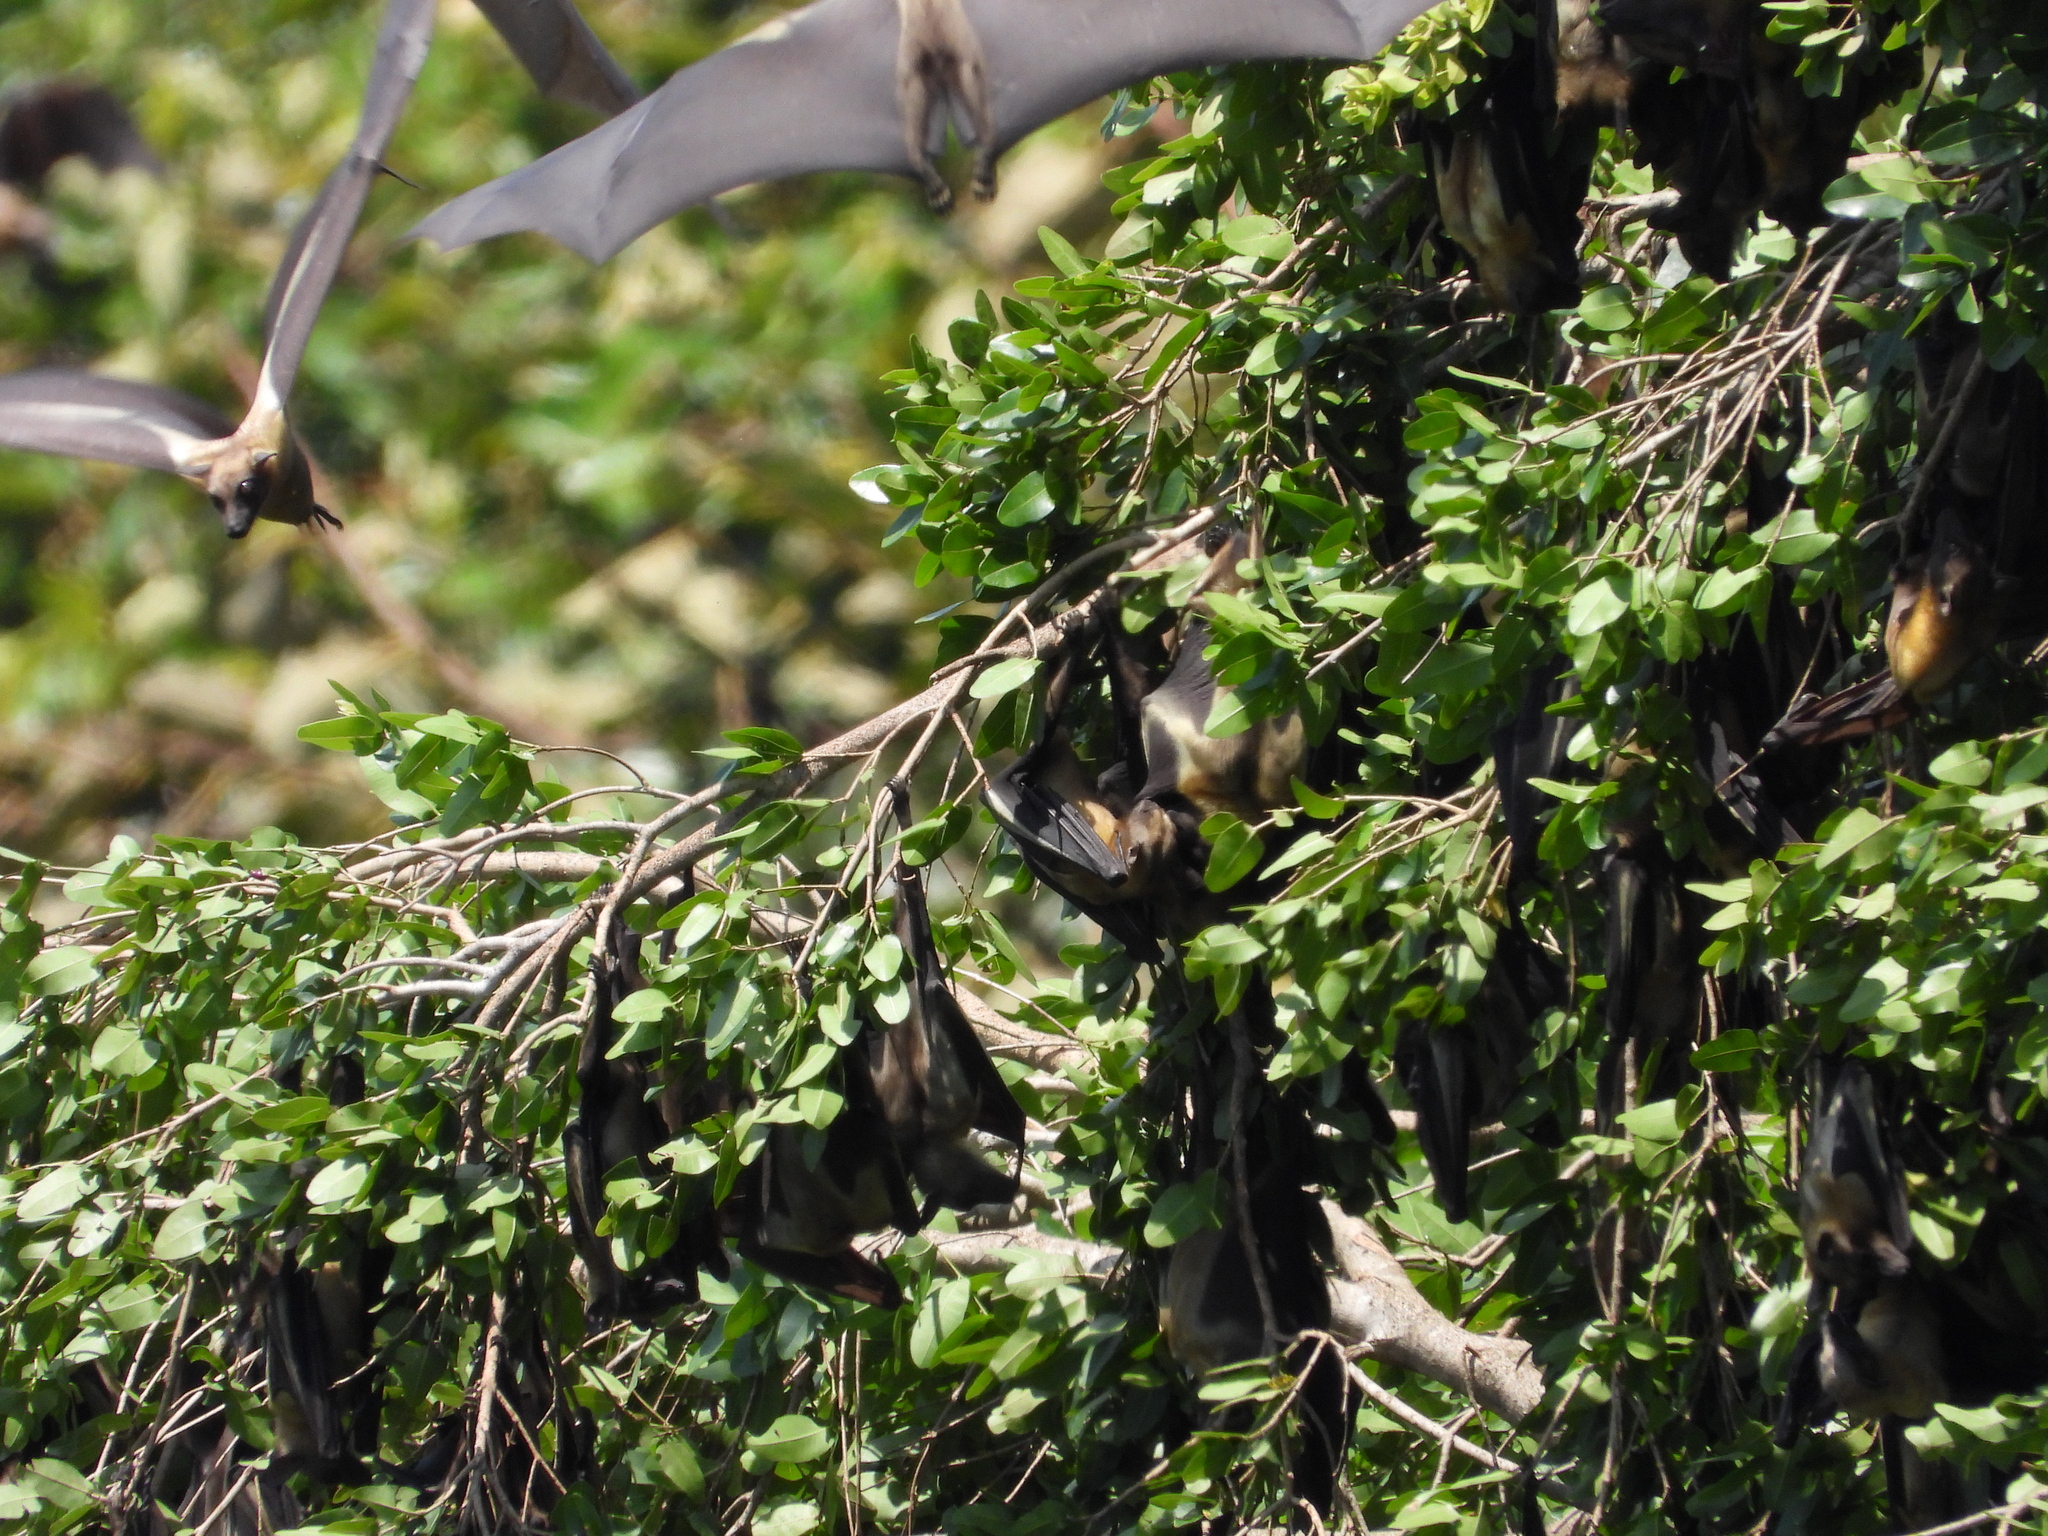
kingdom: Animalia
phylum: Chordata
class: Mammalia
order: Chiroptera
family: Pteropodidae
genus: Eidolon
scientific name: Eidolon helvum
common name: Straw-colored fruit bat
